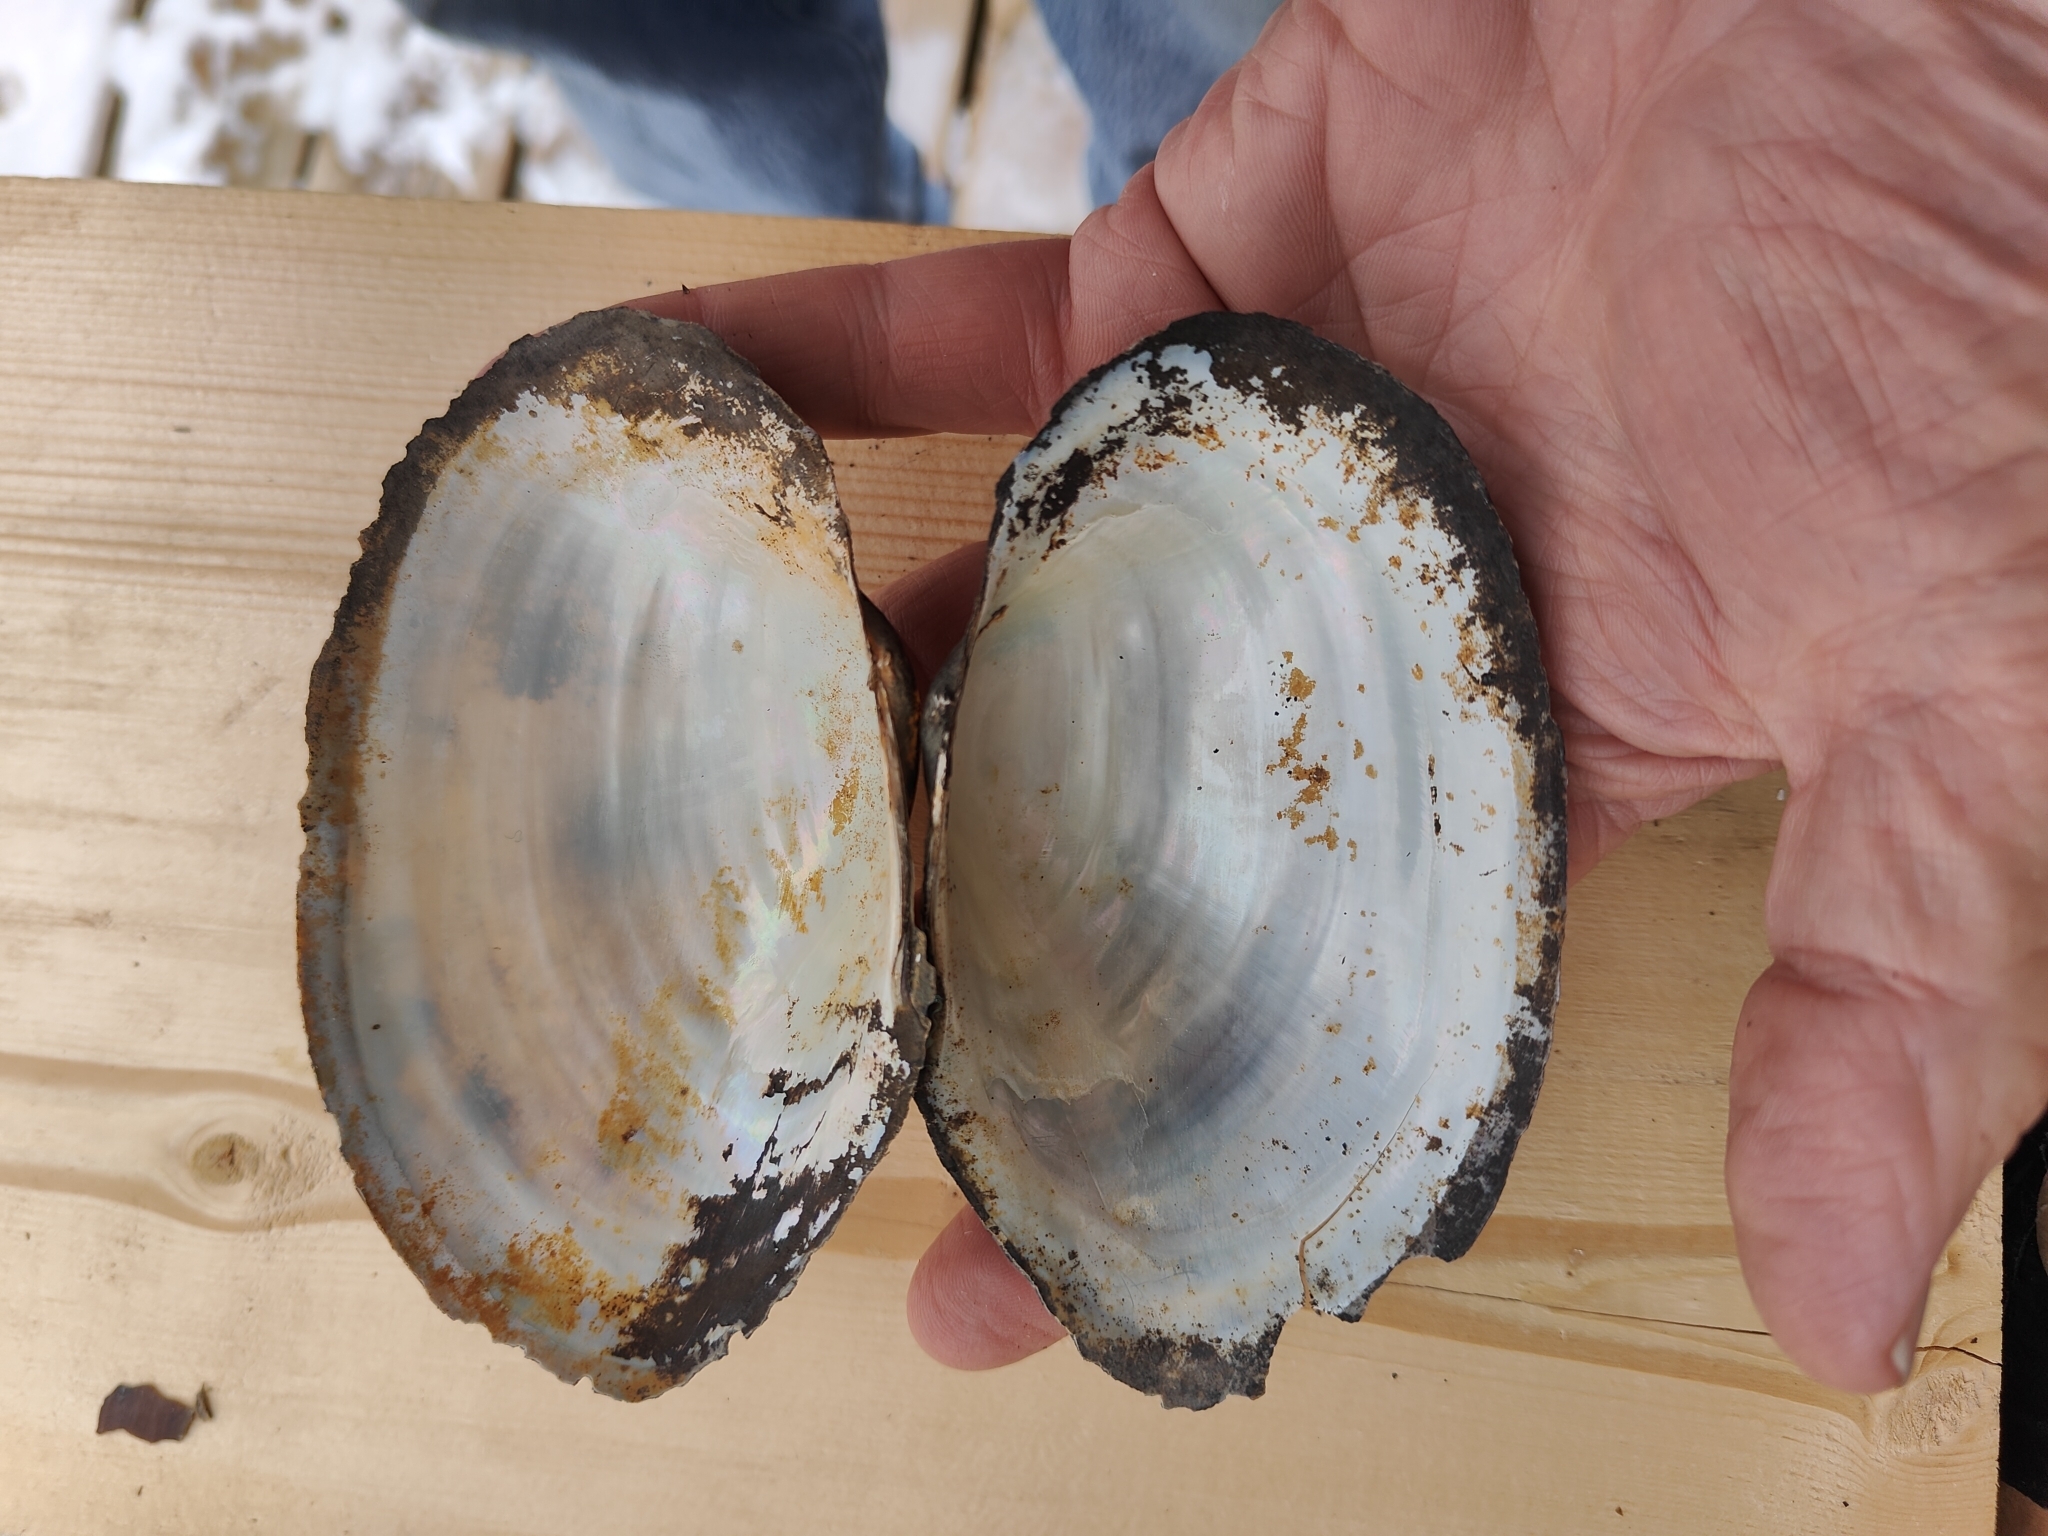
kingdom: Animalia
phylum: Mollusca
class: Bivalvia
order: Unionida
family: Unionidae
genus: Pyganodon
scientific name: Pyganodon grandis
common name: Giant floater
